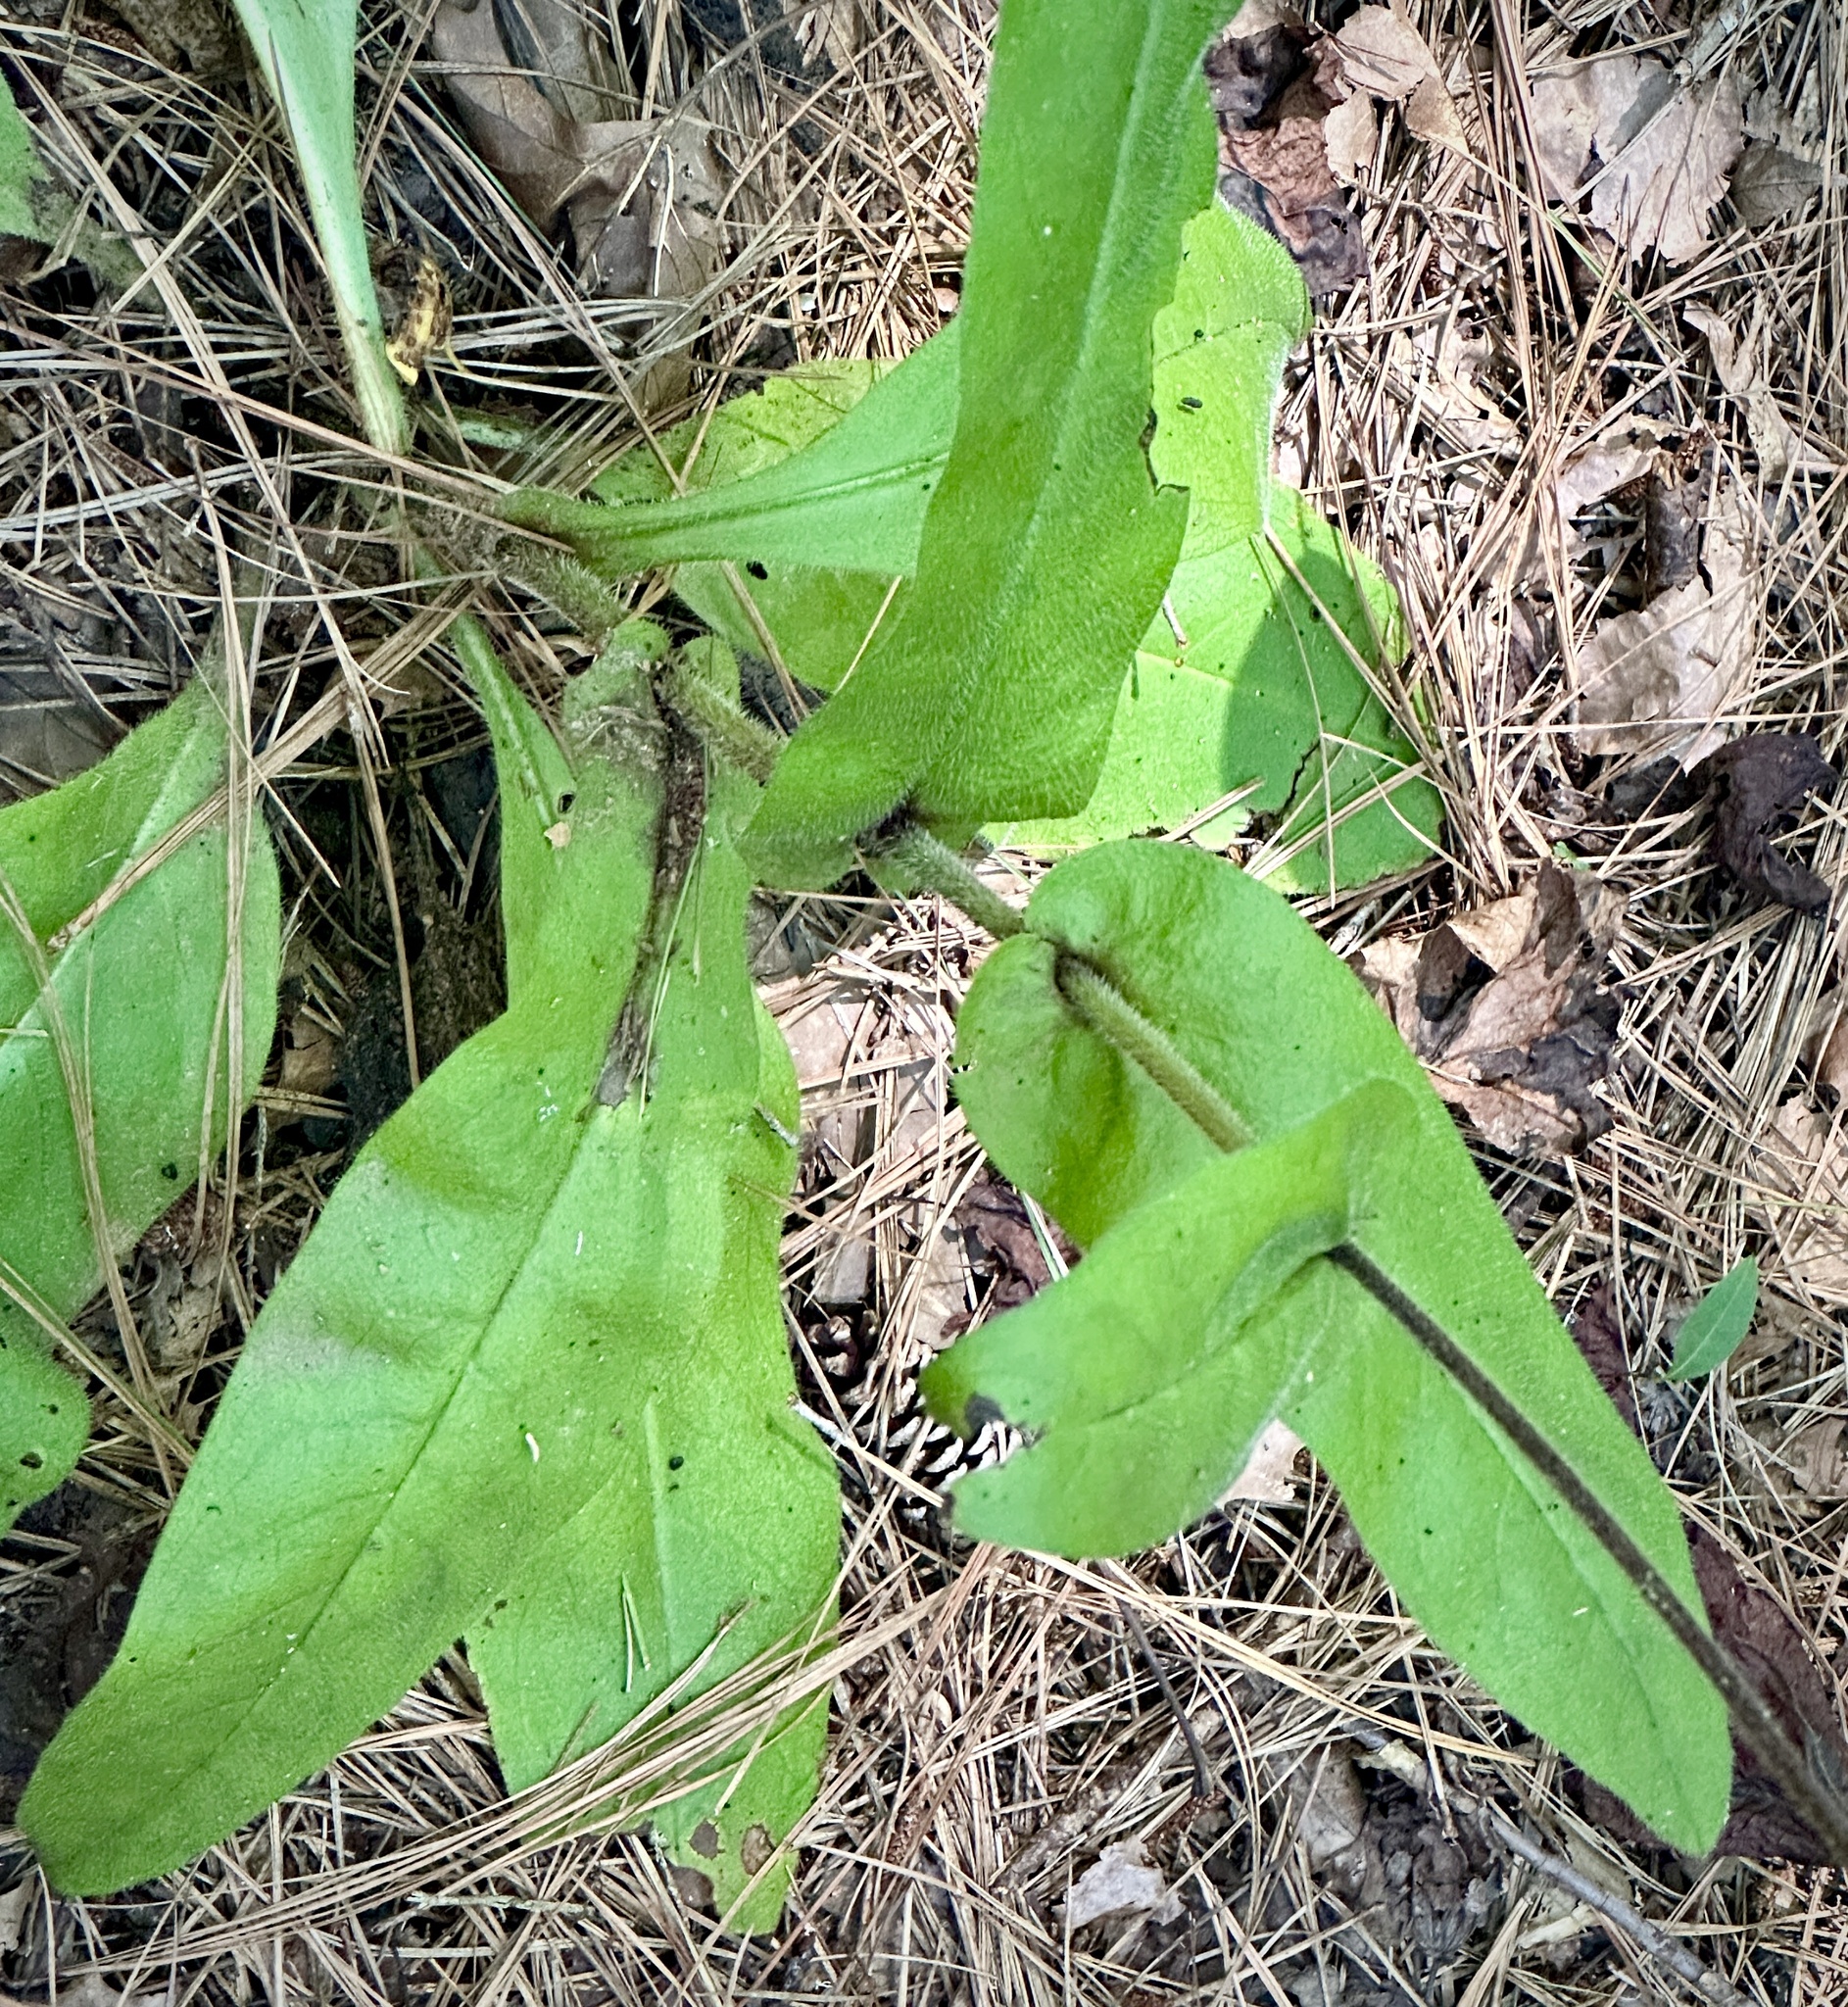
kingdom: Plantae
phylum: Tracheophyta
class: Magnoliopsida
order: Boraginales
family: Boraginaceae
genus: Andersonglossum
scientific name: Andersonglossum virginianum
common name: Wild comfrey
